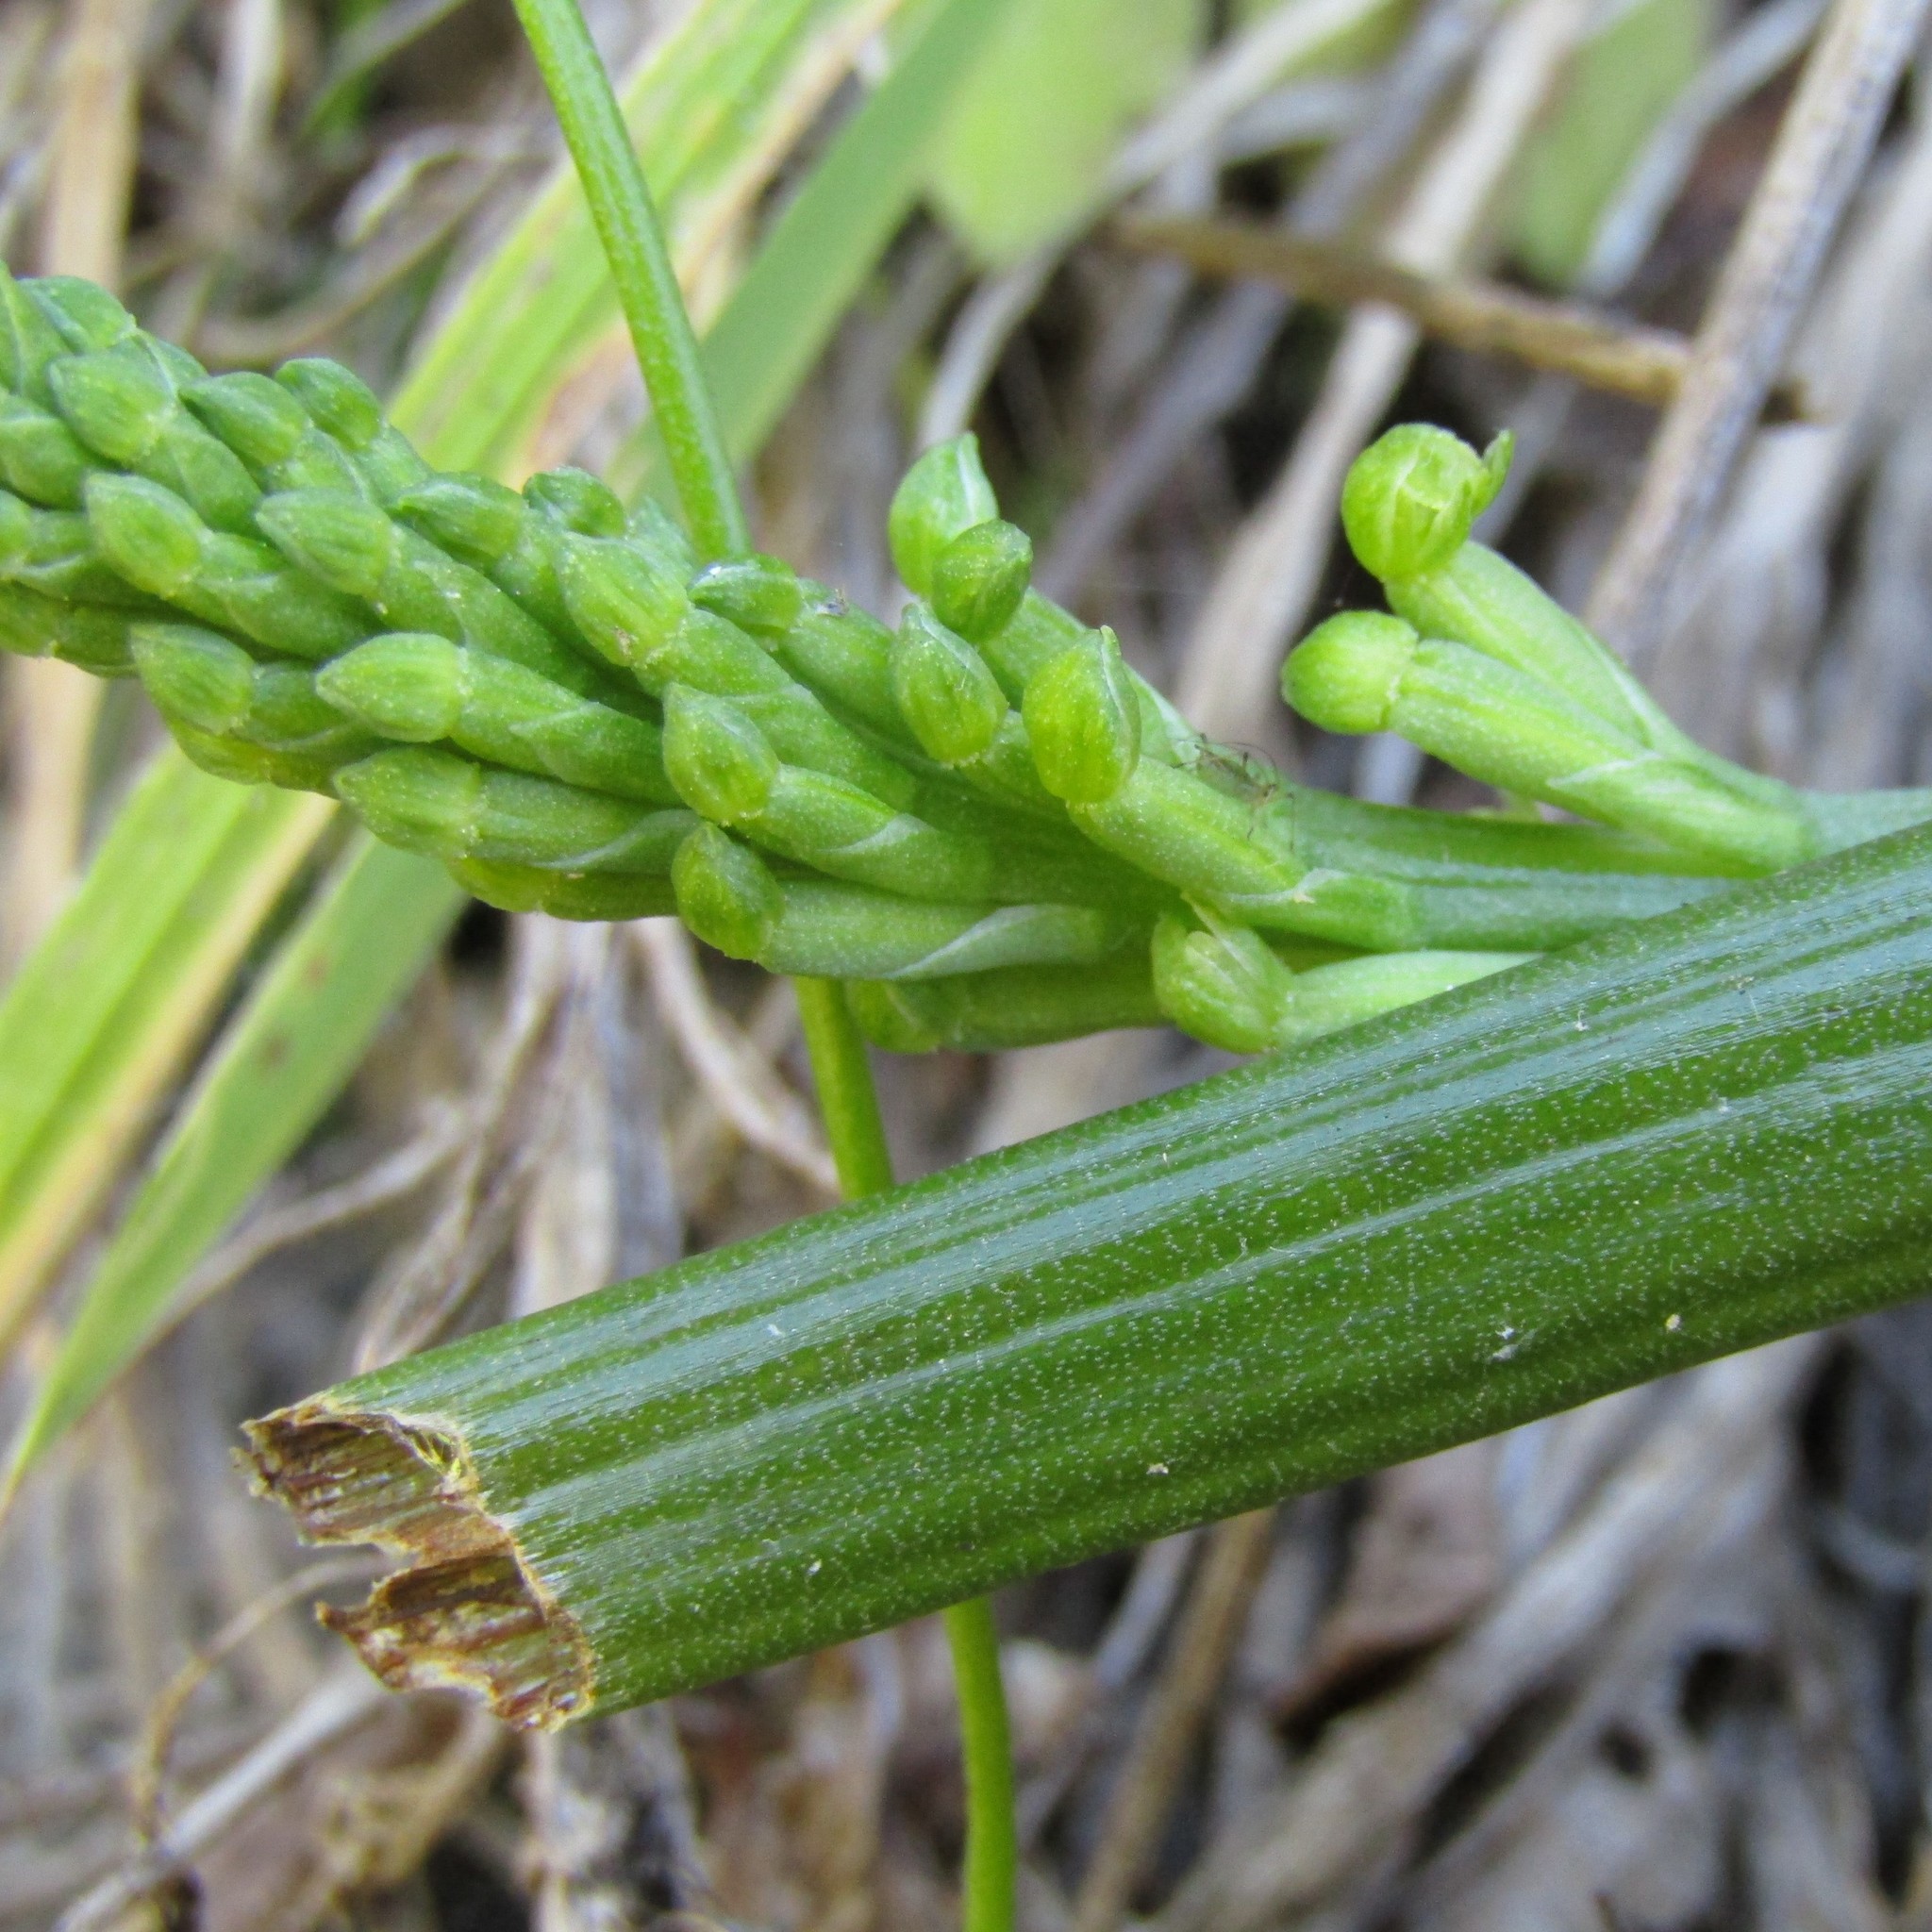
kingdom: Plantae
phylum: Tracheophyta
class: Liliopsida
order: Asparagales
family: Orchidaceae
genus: Microtis
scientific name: Microtis unifolia
